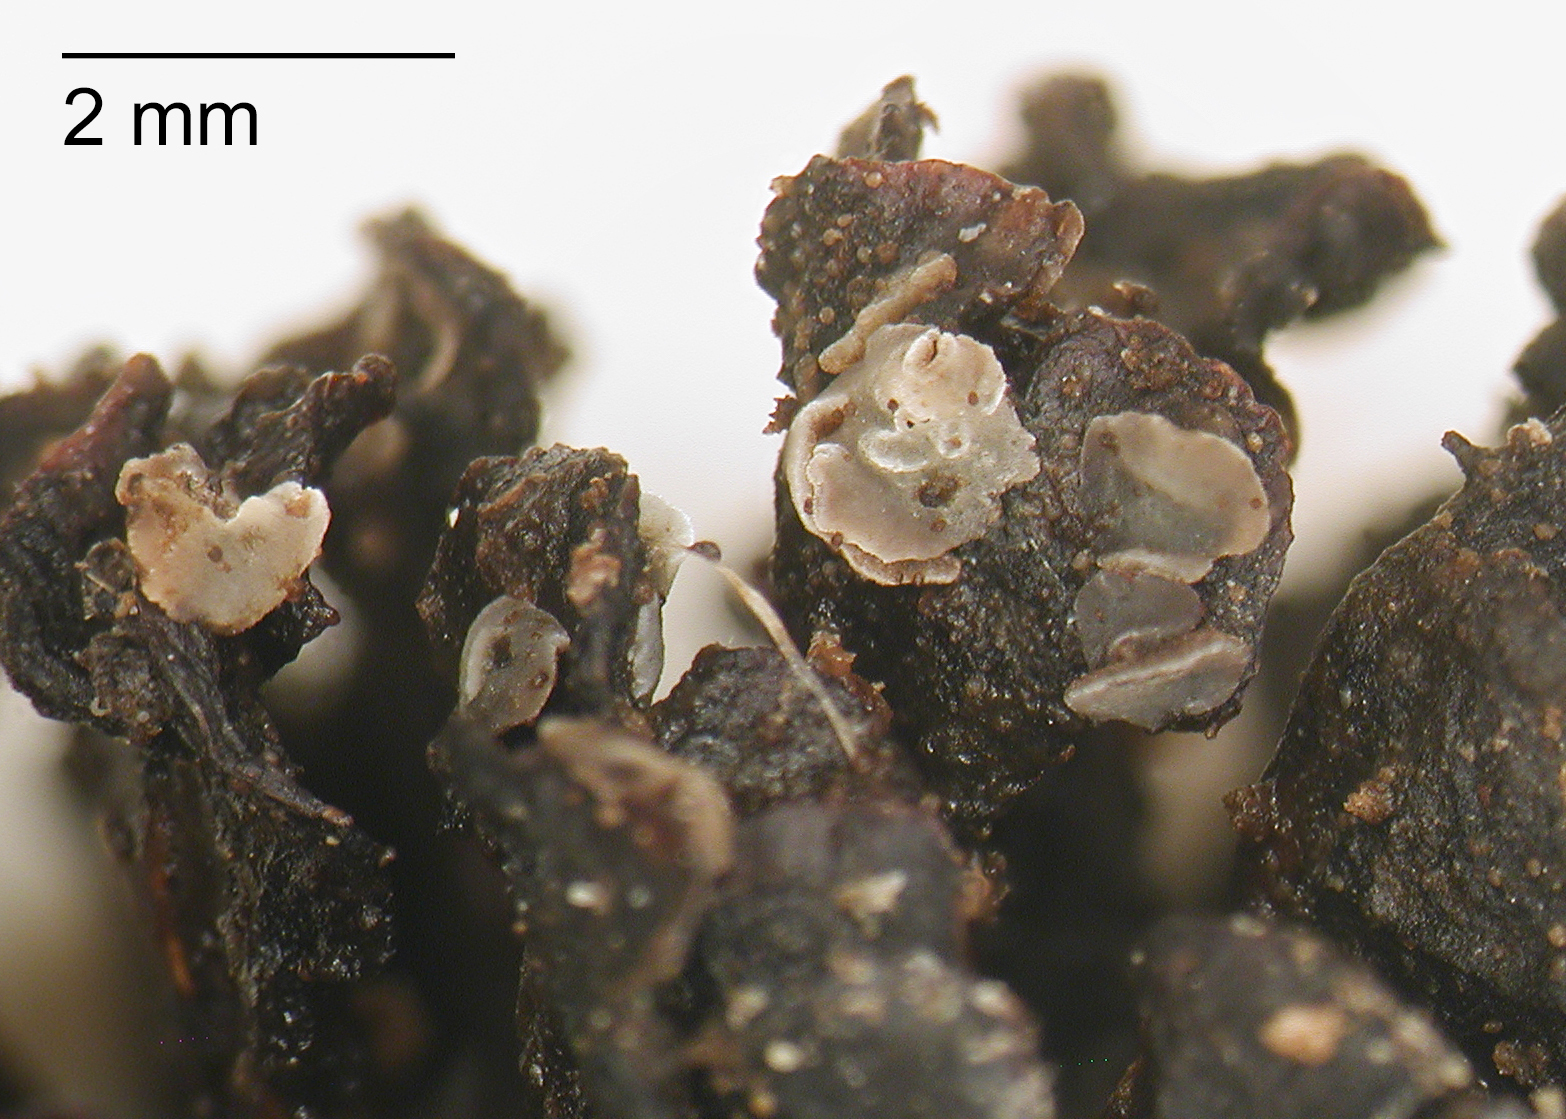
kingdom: Fungi
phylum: Ascomycota
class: Leotiomycetes
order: Helotiales
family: Mollisiaceae
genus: Mollisia
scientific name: Mollisia amenticola
